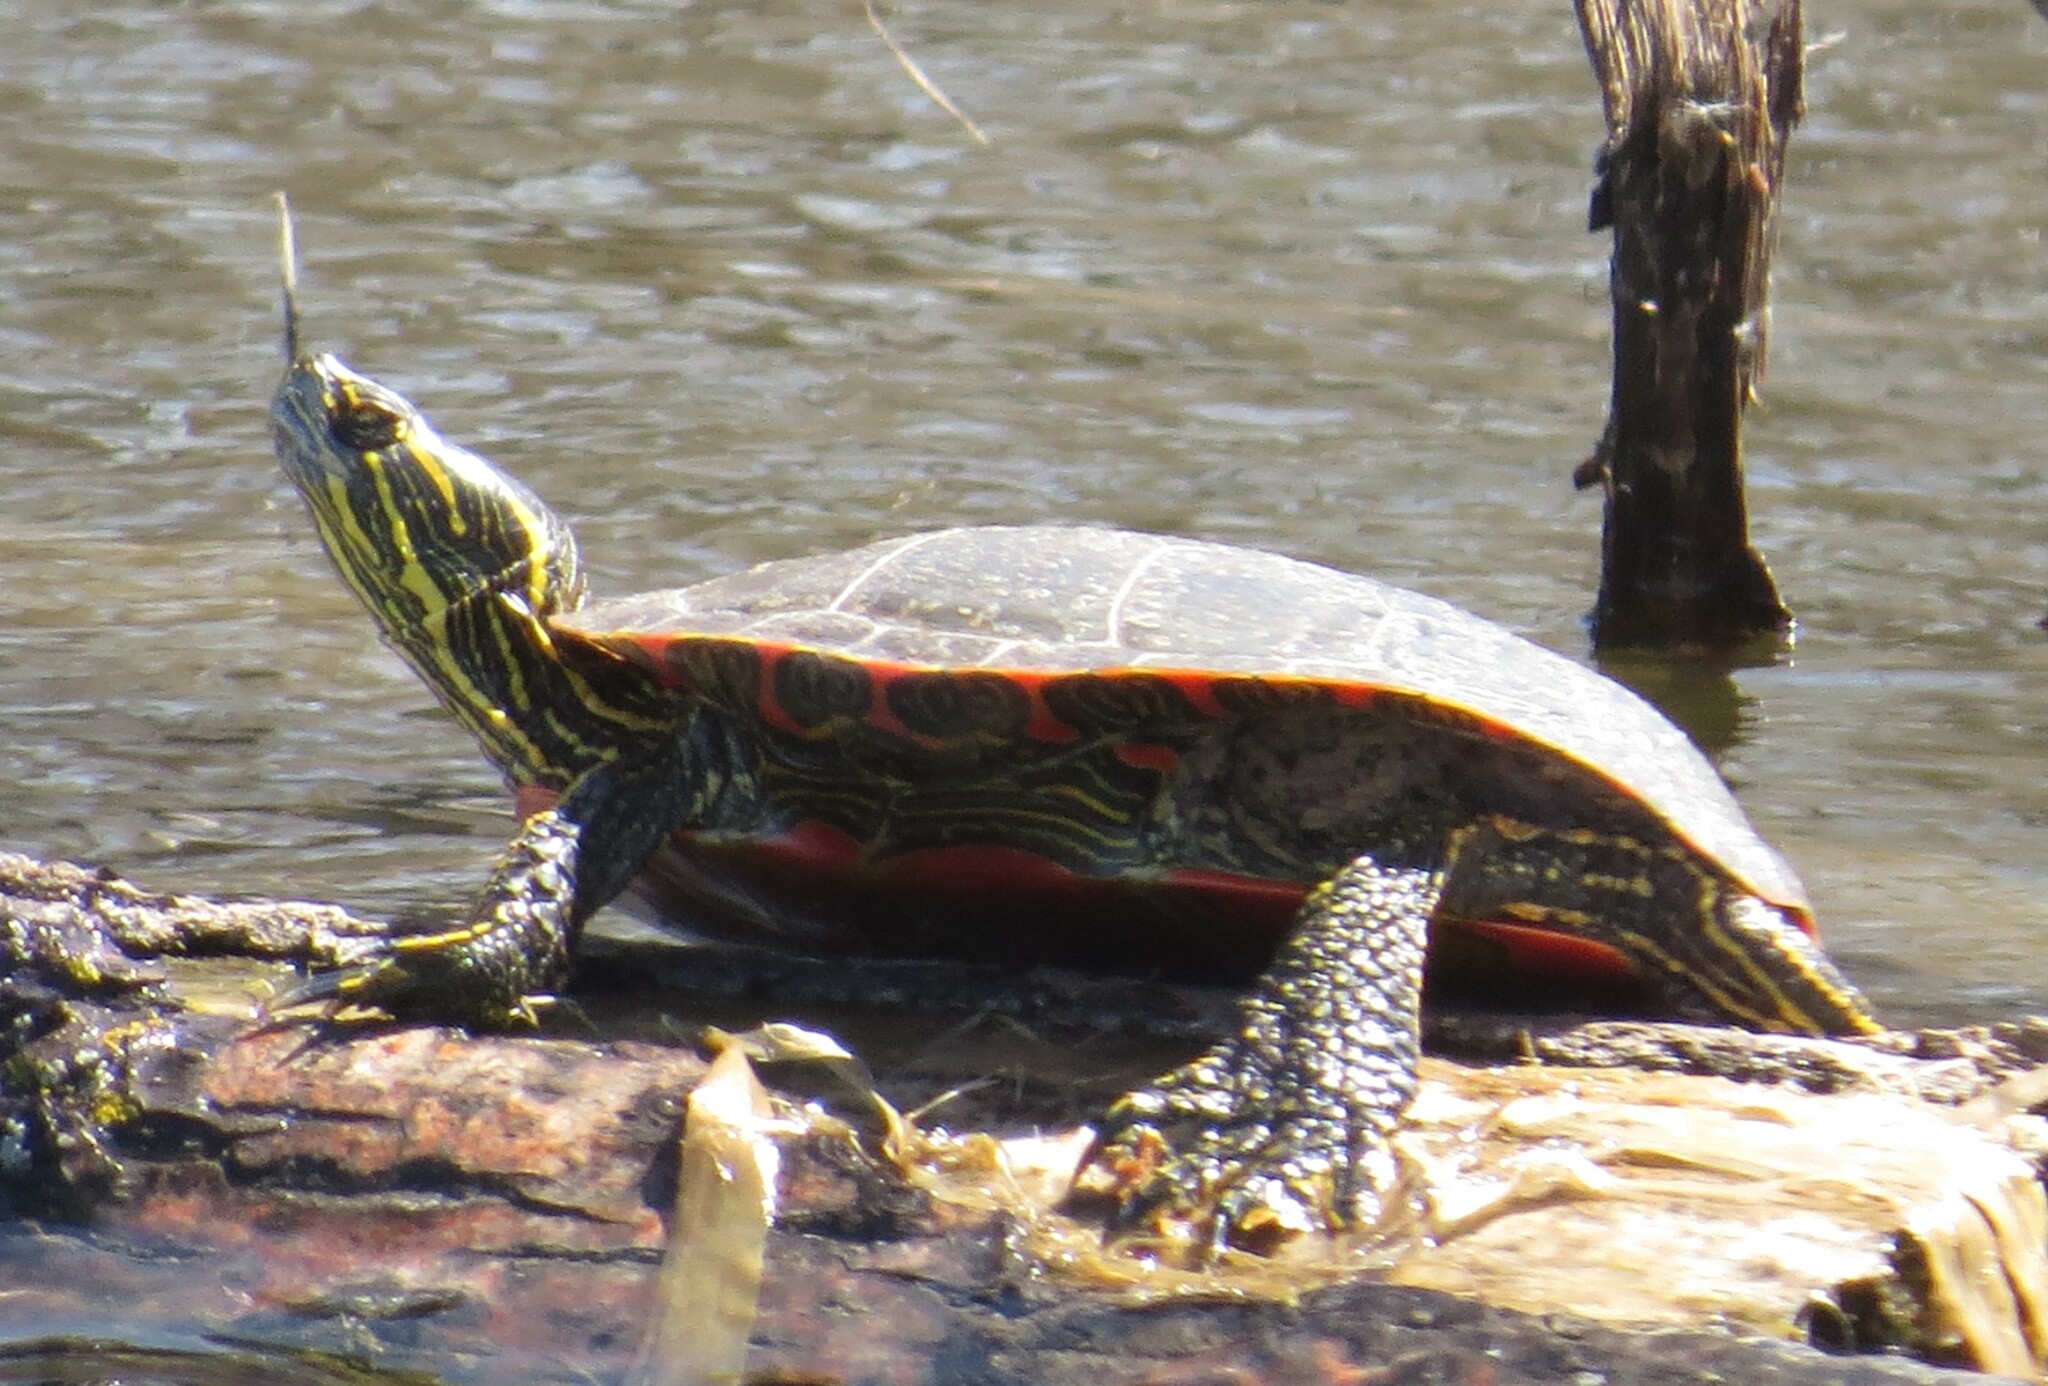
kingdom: Animalia
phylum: Chordata
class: Testudines
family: Emydidae
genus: Chrysemys
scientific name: Chrysemys picta
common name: Painted turtle
